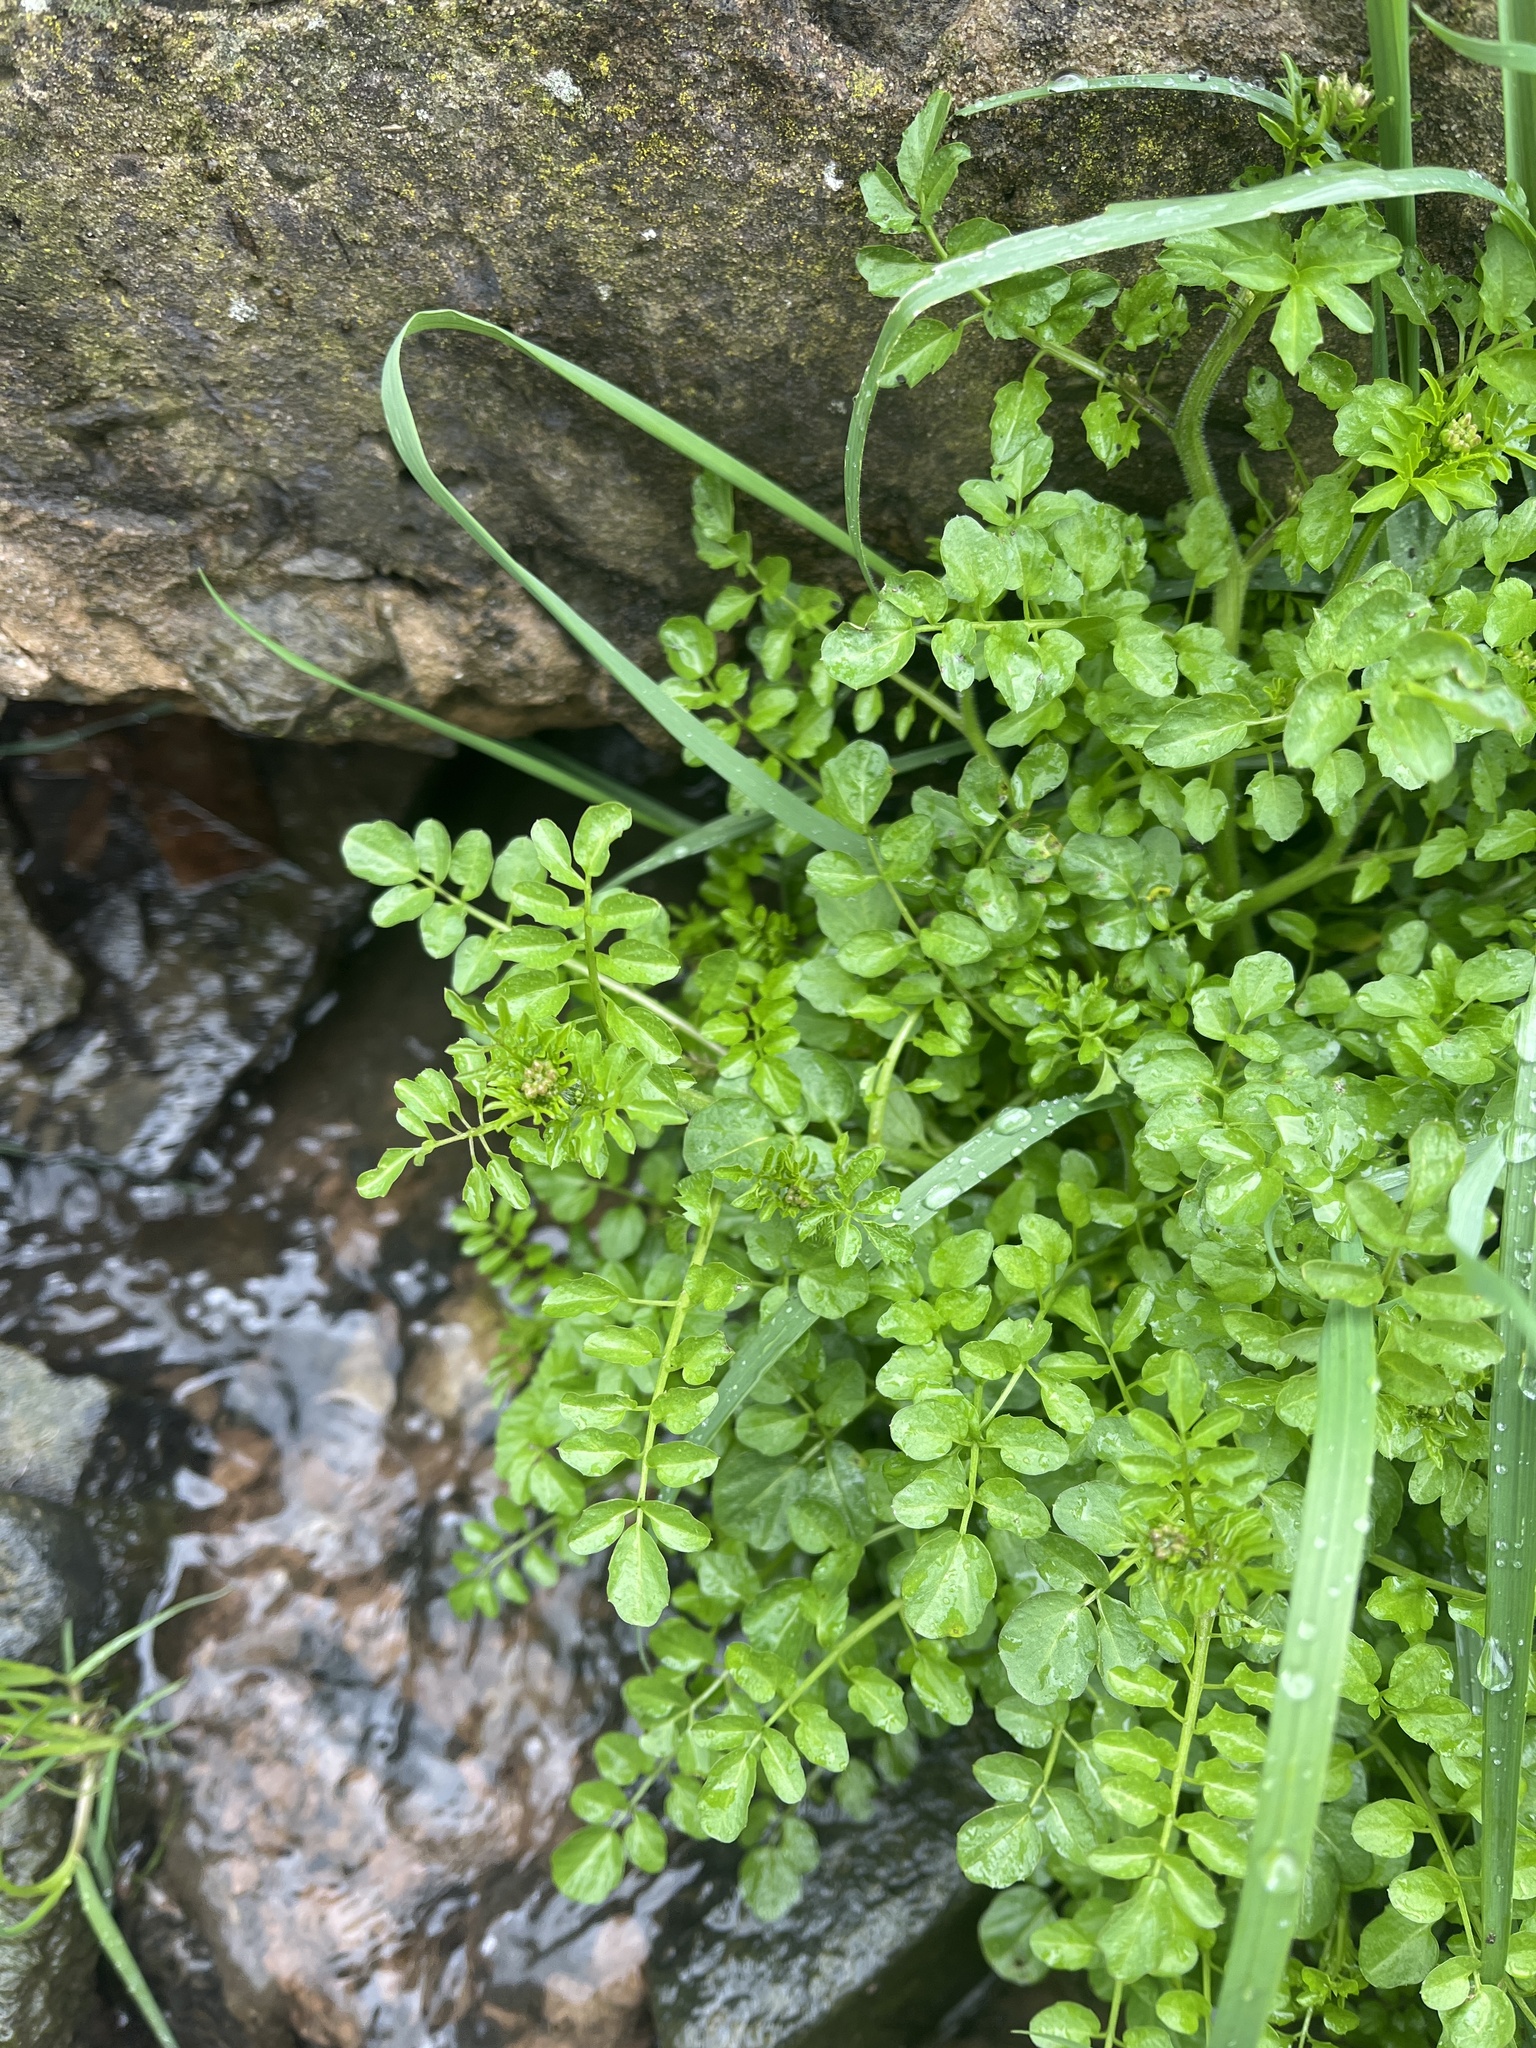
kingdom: Plantae
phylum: Tracheophyta
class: Magnoliopsida
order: Brassicales
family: Brassicaceae
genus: Nasturtium
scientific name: Nasturtium officinale
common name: Watercress
